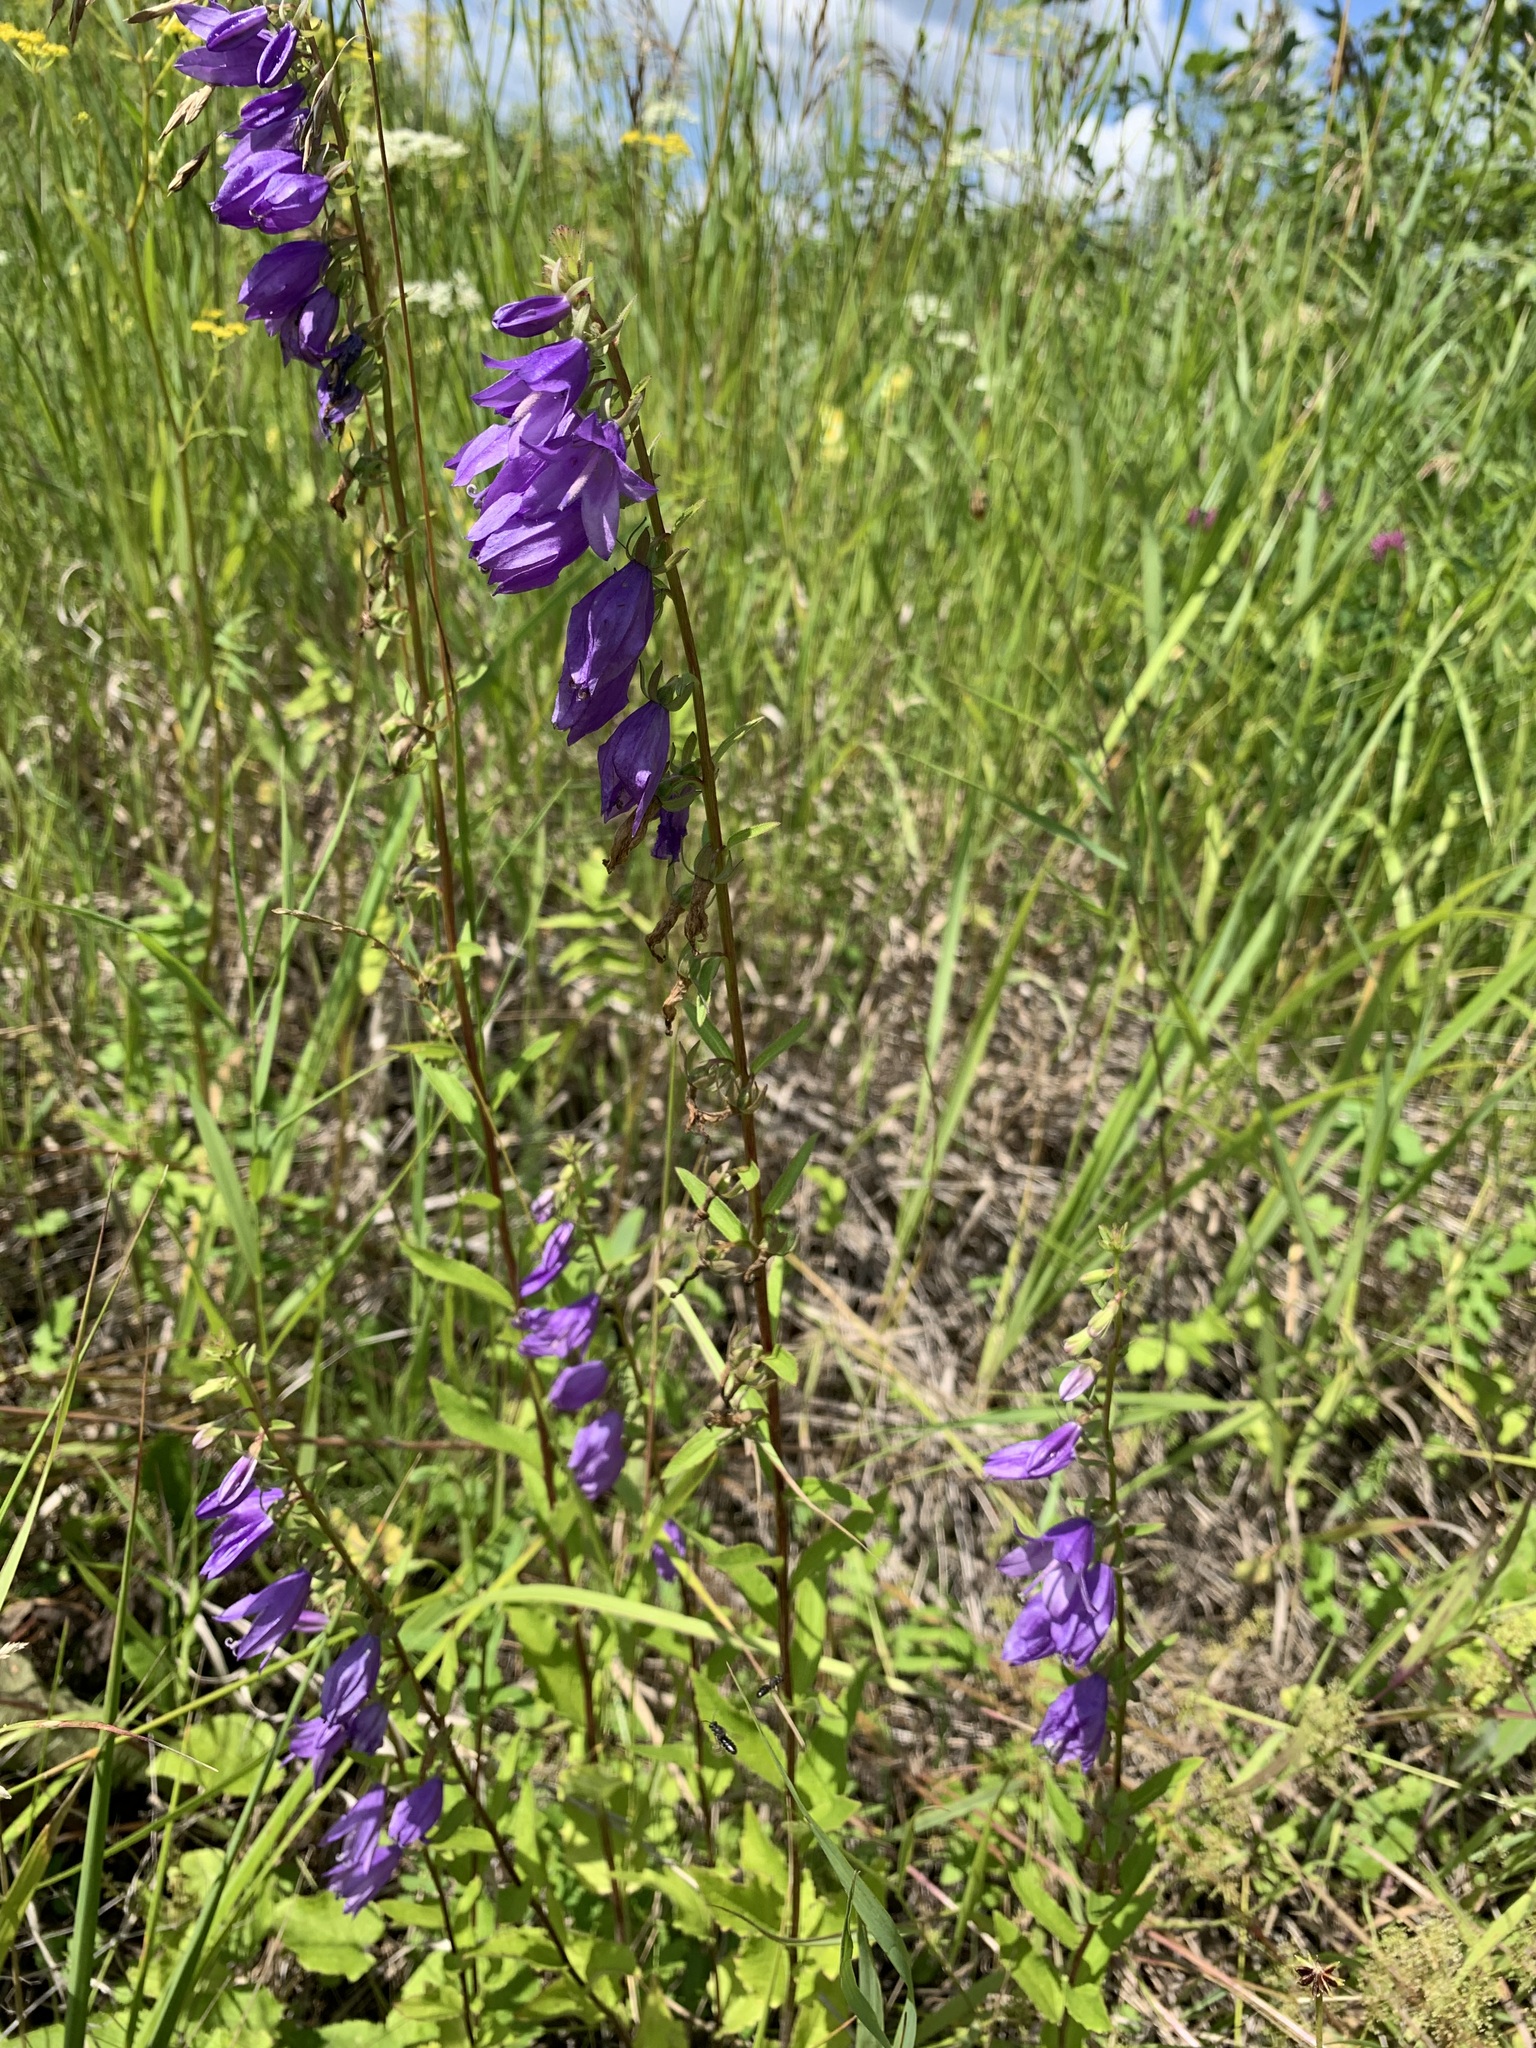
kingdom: Plantae
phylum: Tracheophyta
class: Magnoliopsida
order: Asterales
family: Campanulaceae
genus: Campanula
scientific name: Campanula rapunculoides
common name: Creeping bellflower
